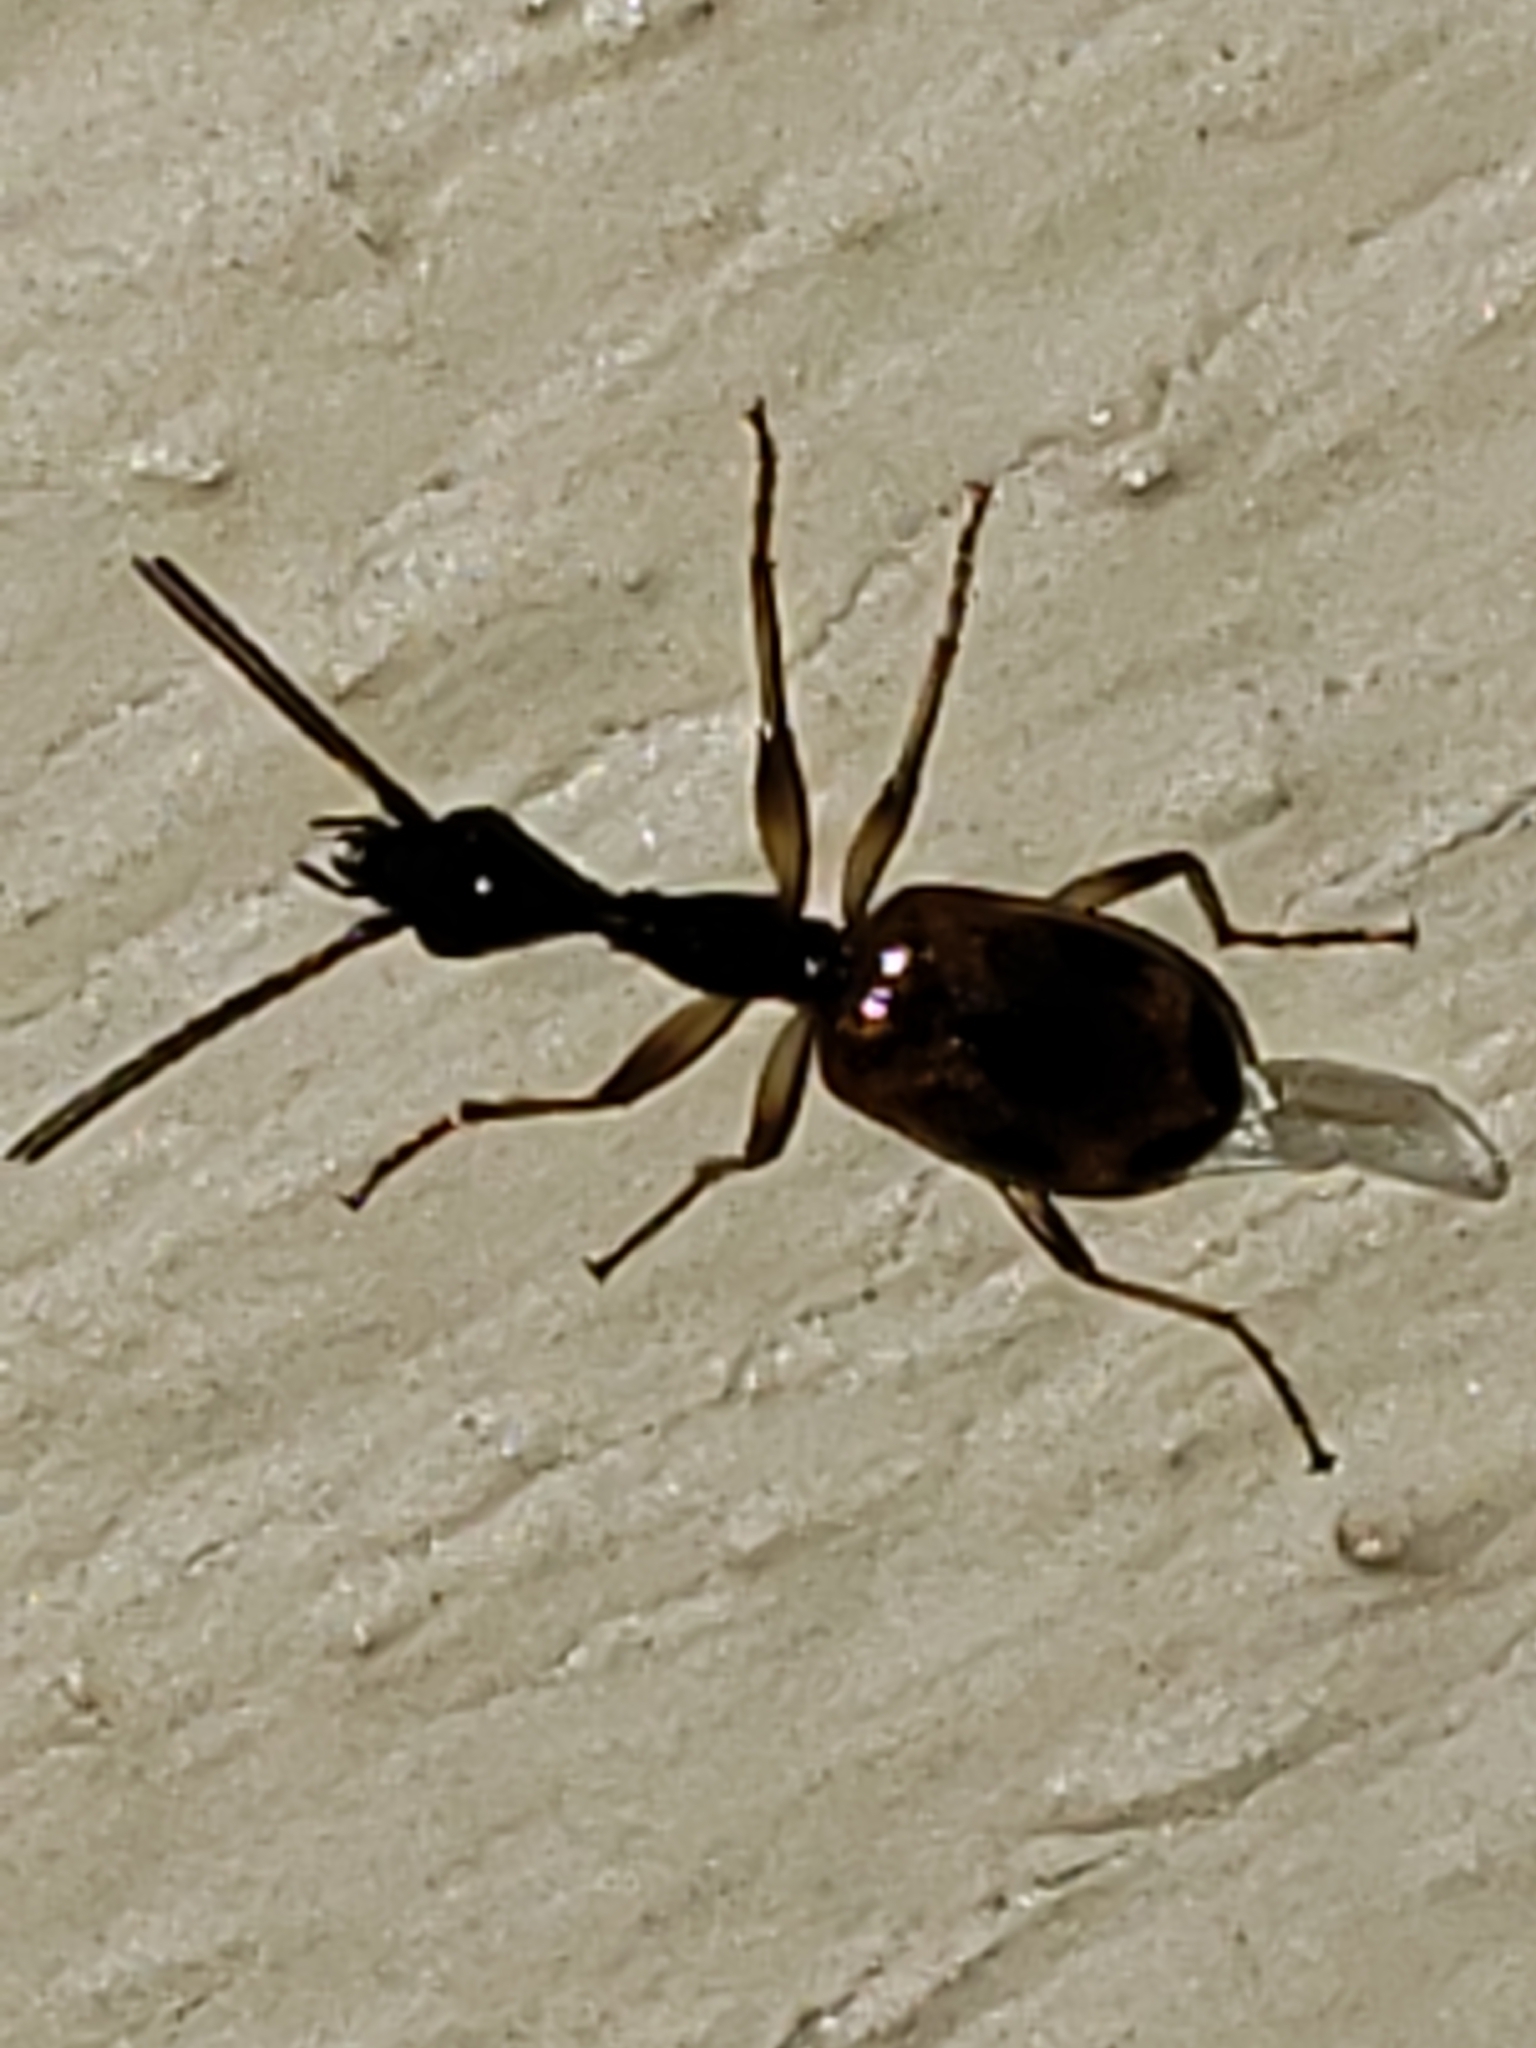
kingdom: Animalia
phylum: Arthropoda
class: Insecta
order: Coleoptera
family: Carabidae
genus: Colliuris
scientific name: Colliuris pensylvanica
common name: Long-necked ground beetle
